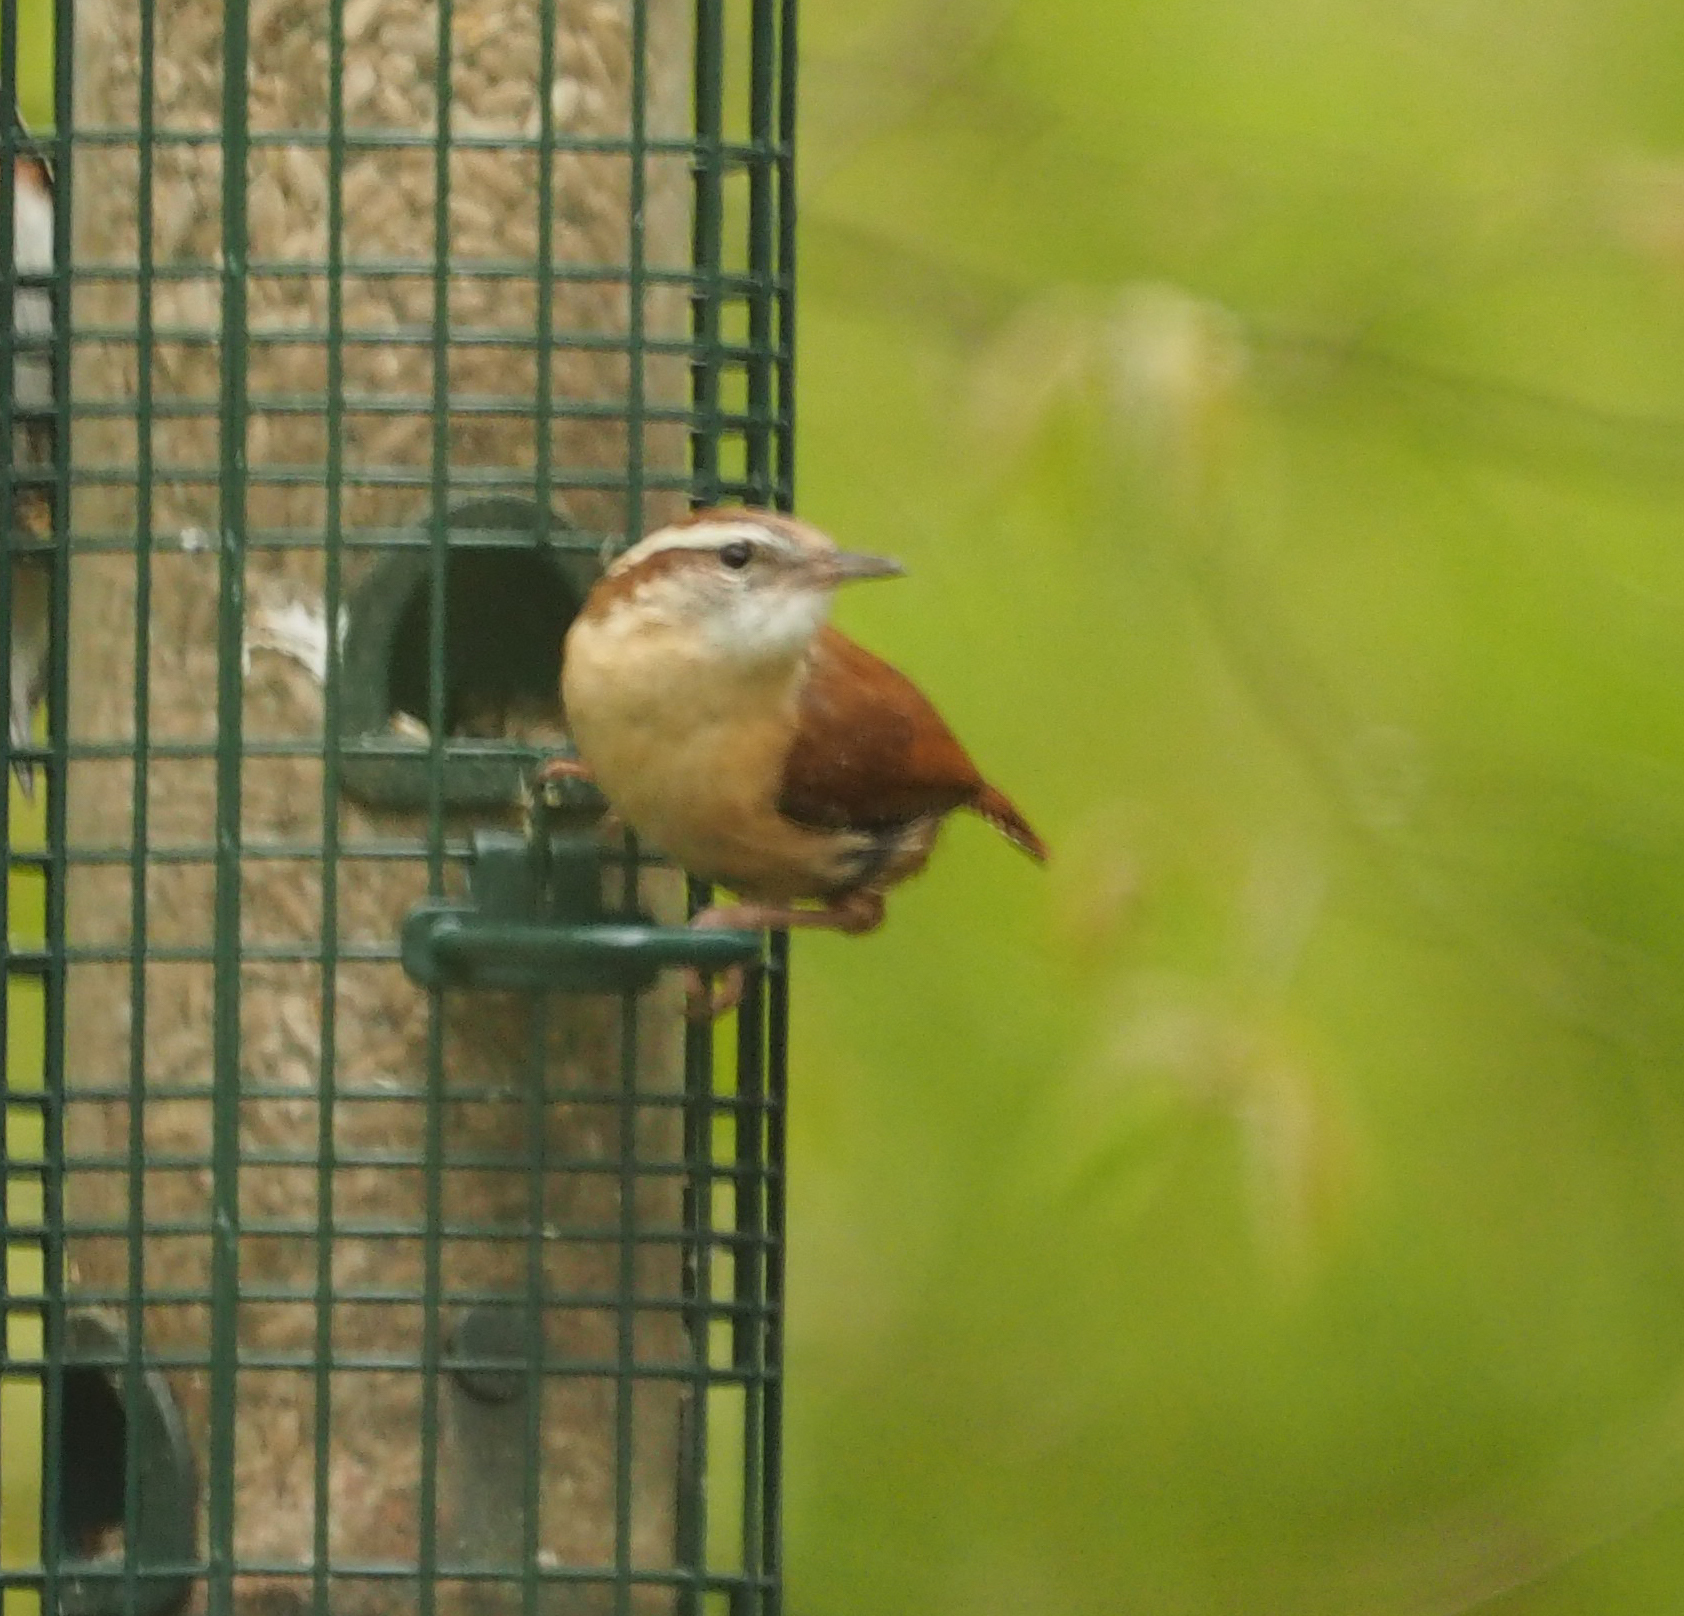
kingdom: Animalia
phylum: Chordata
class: Aves
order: Passeriformes
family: Troglodytidae
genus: Thryothorus
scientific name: Thryothorus ludovicianus
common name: Carolina wren
